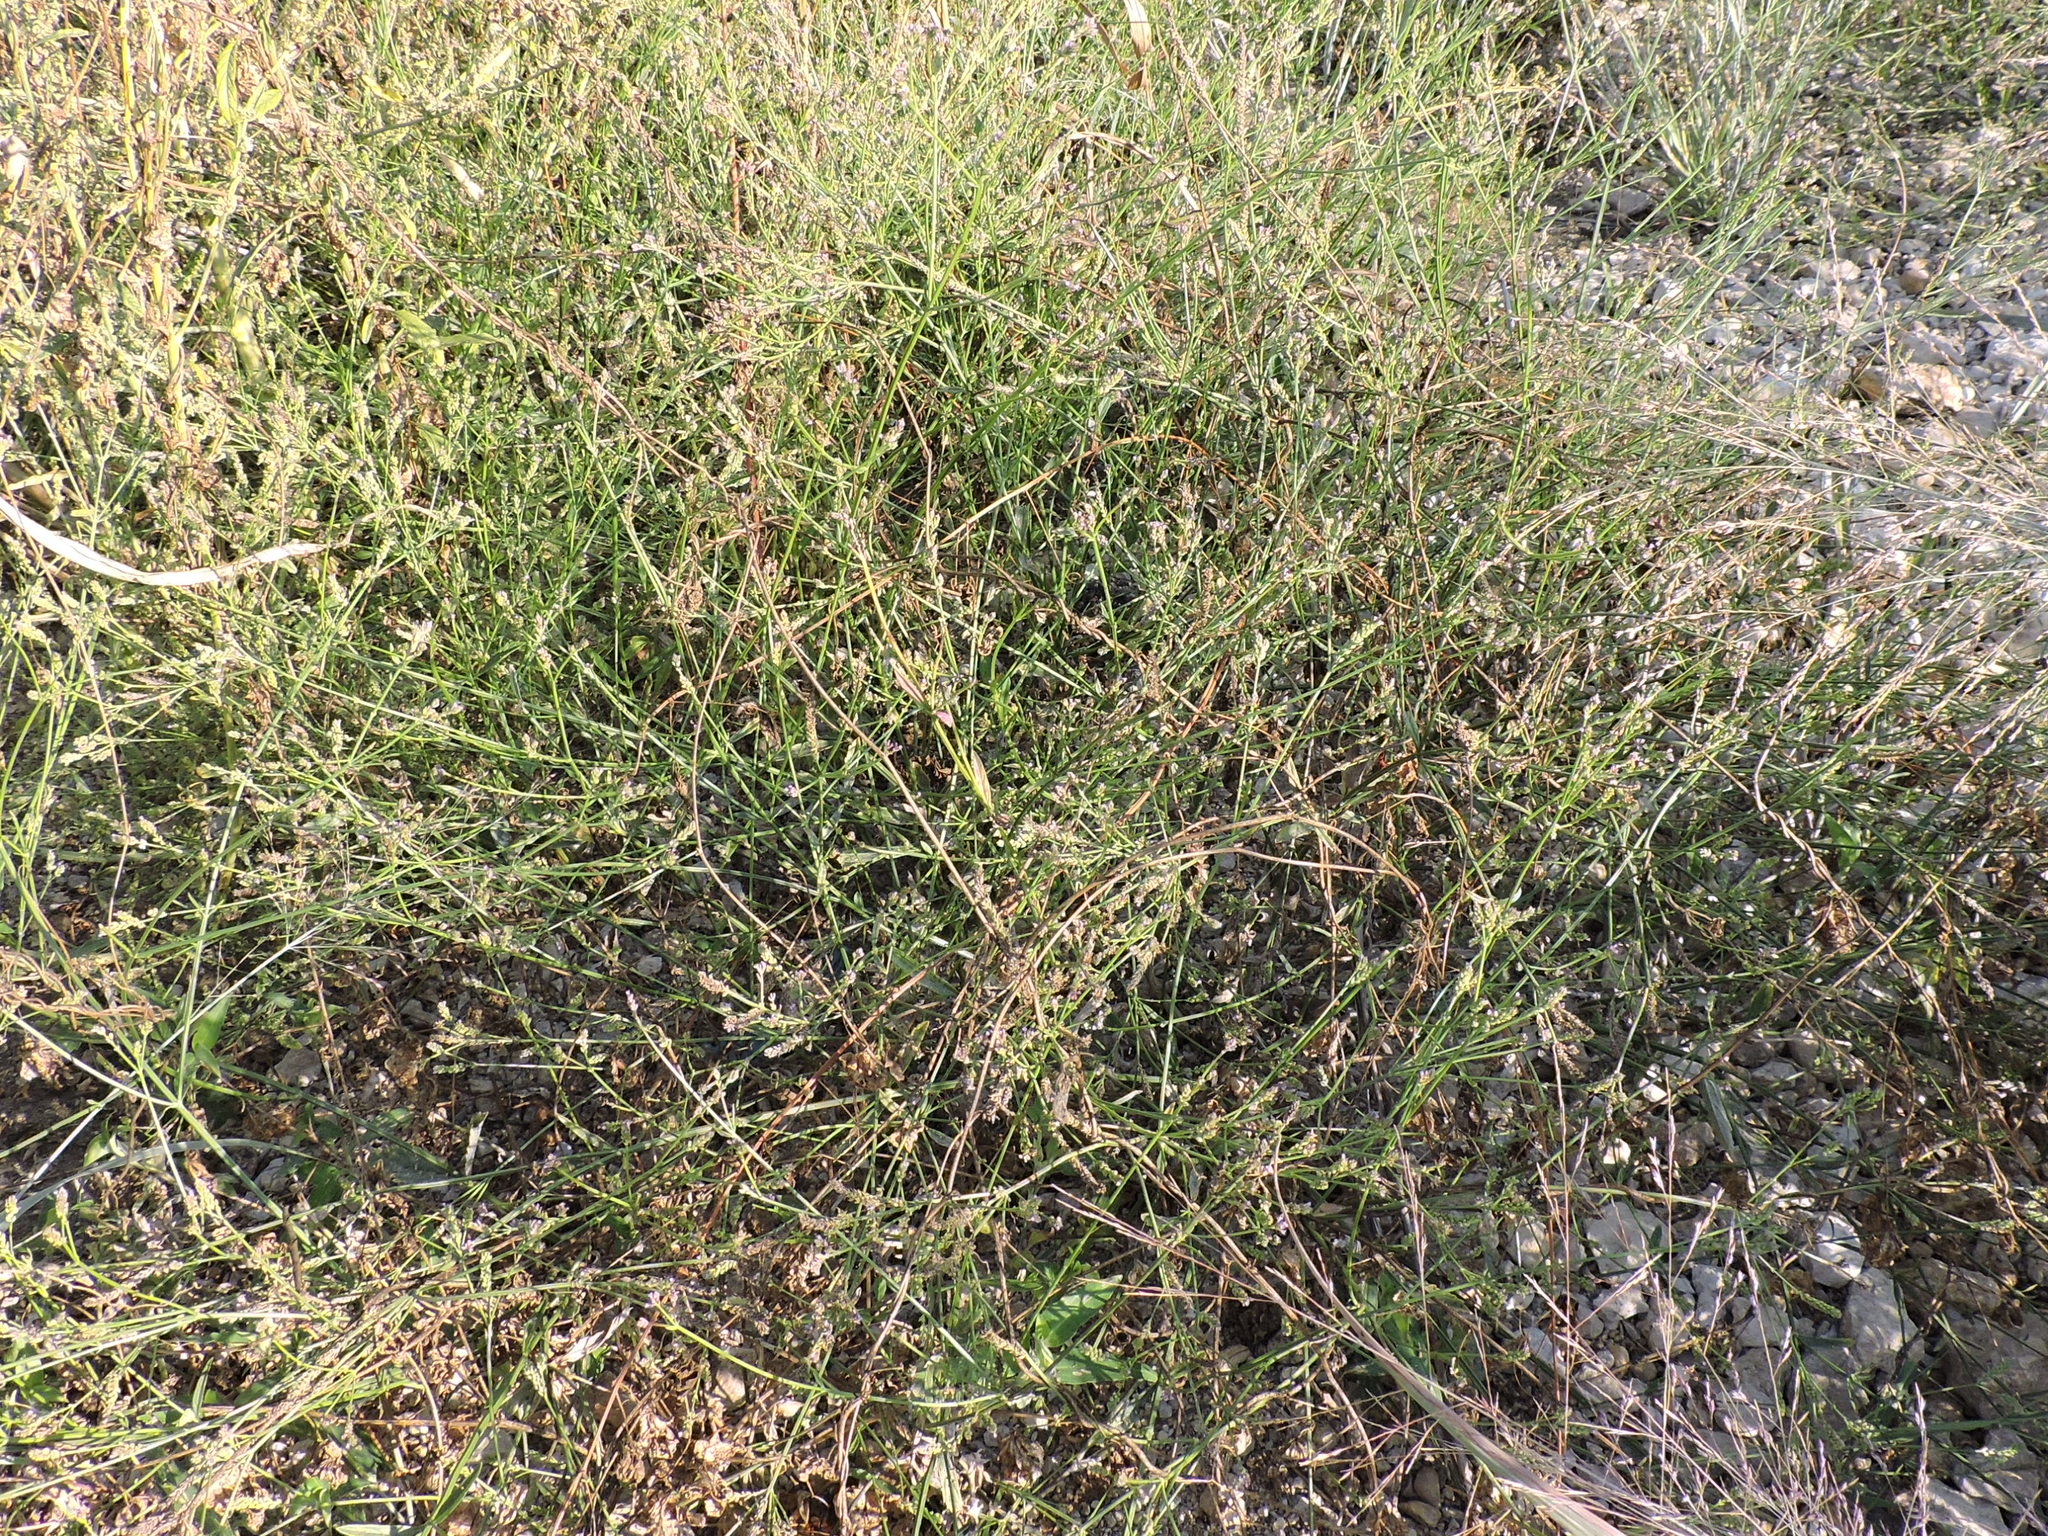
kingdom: Plantae
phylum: Tracheophyta
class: Magnoliopsida
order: Lamiales
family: Verbenaceae
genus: Verbena
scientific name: Verbena brasiliensis
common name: Brazilian vervain
